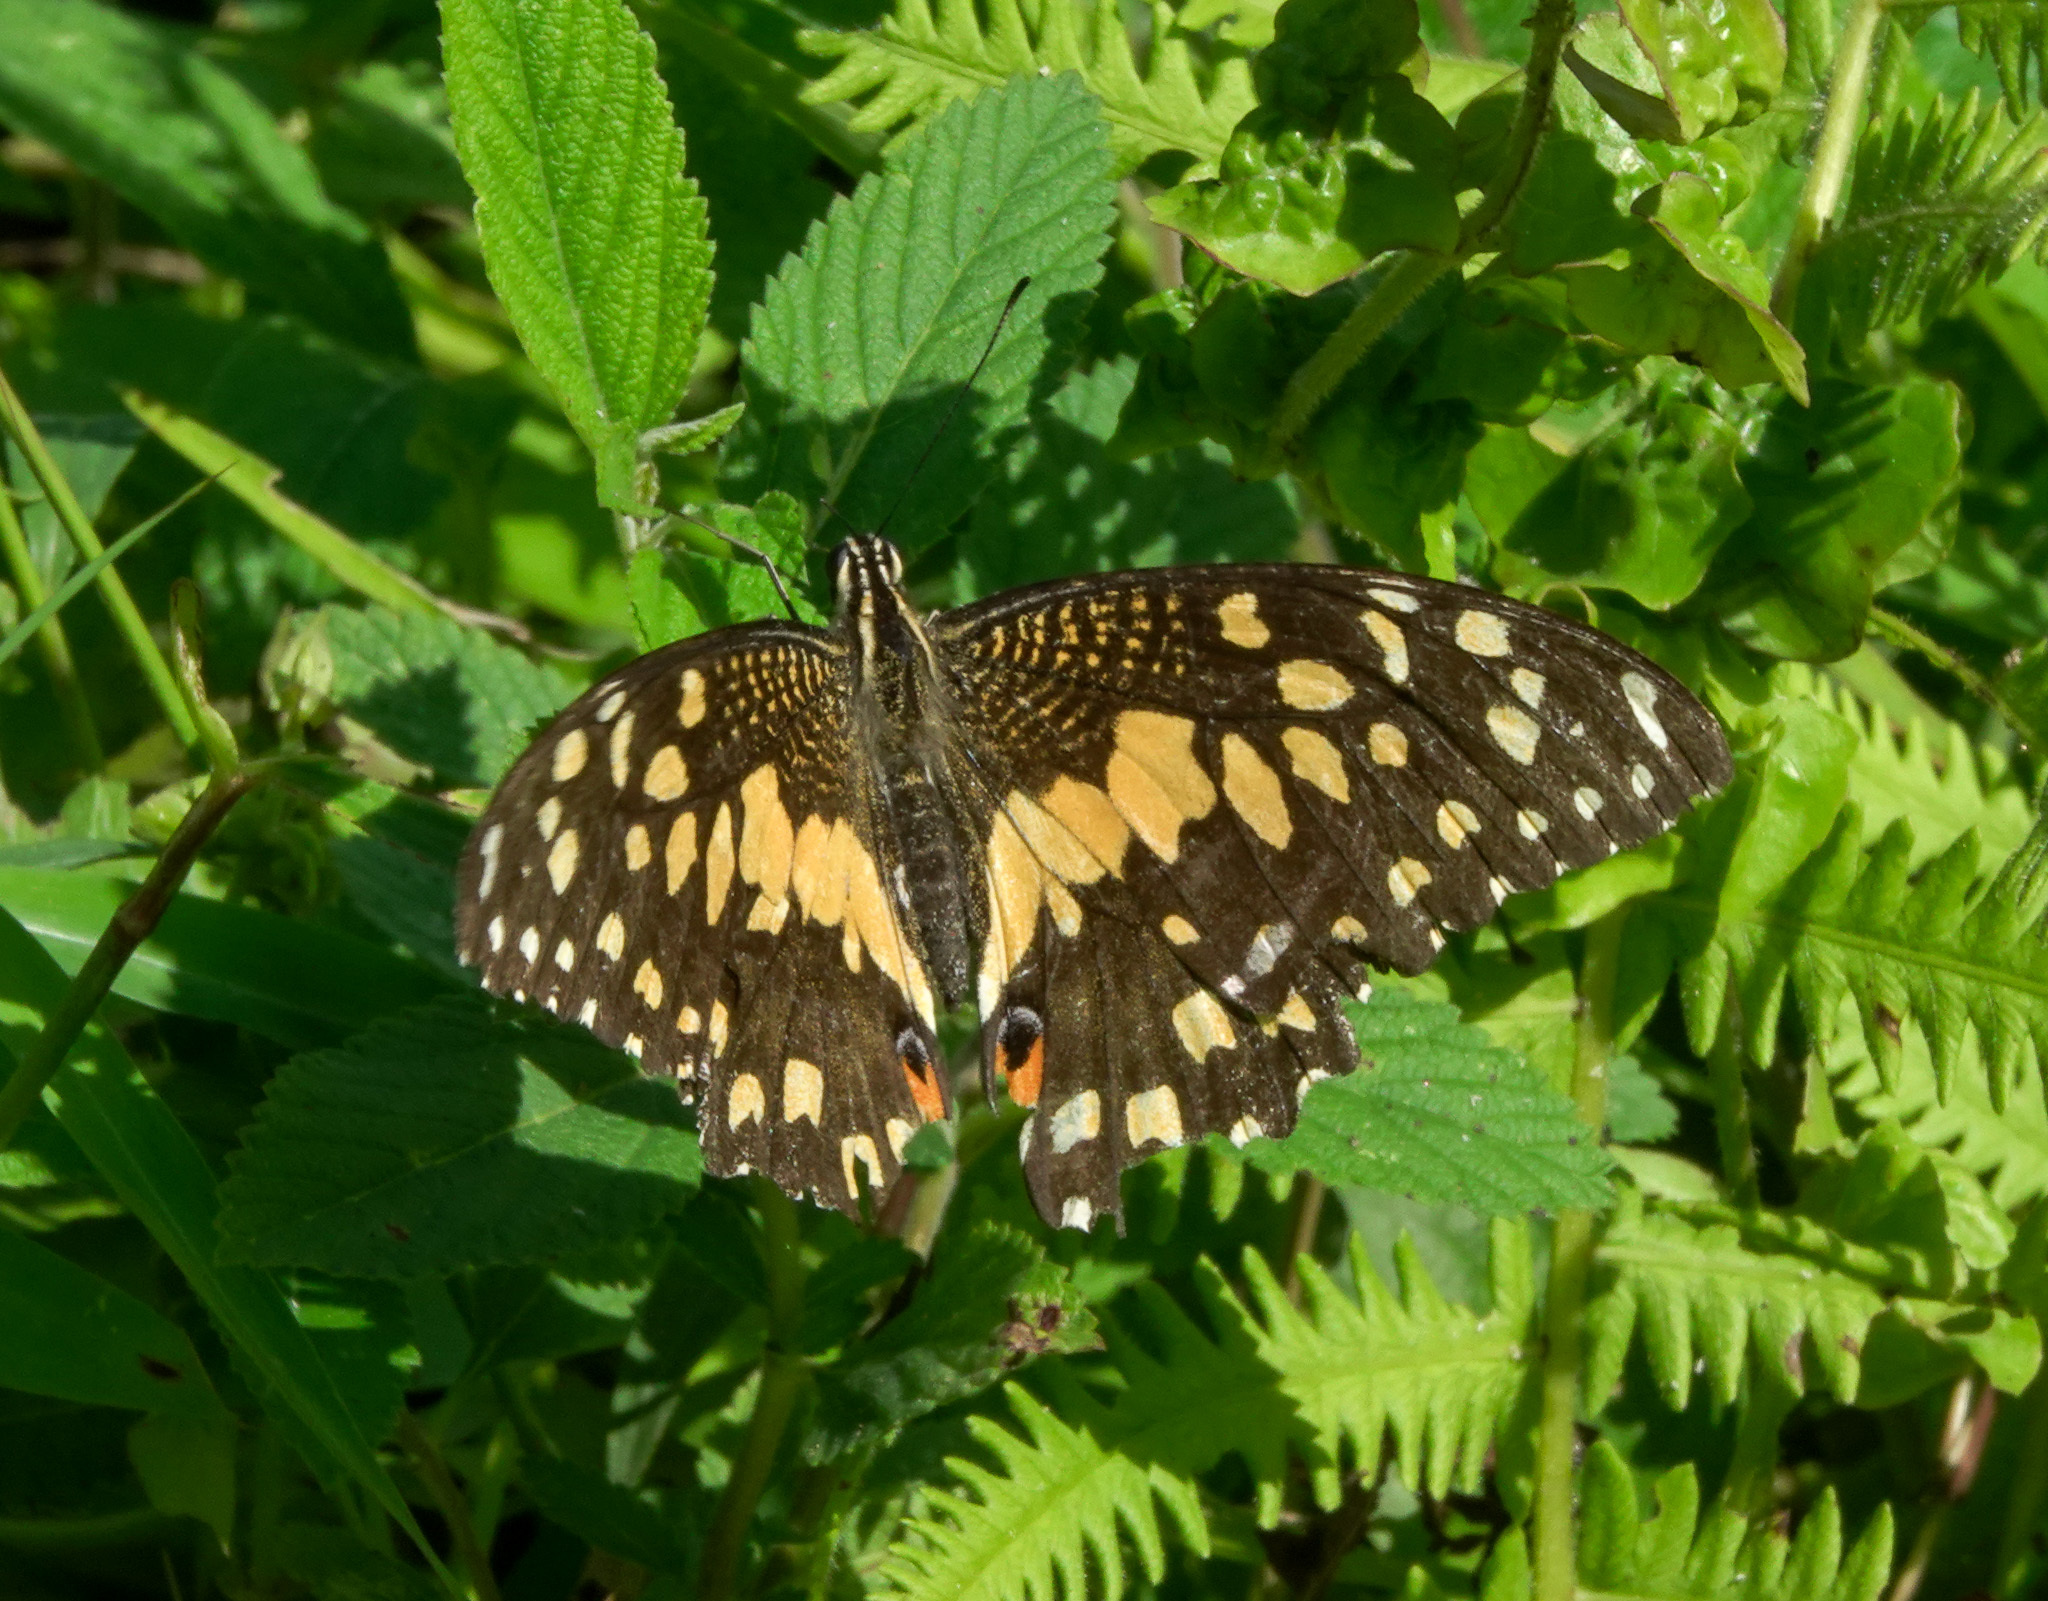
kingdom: Animalia
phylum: Arthropoda
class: Insecta
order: Lepidoptera
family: Papilionidae
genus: Papilio
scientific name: Papilio demoleus
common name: Lime butterfly
